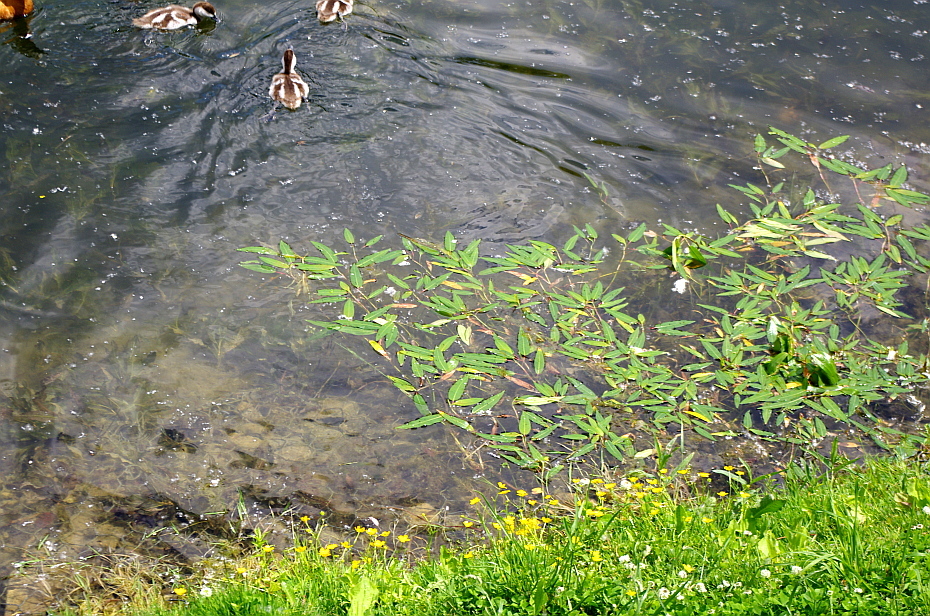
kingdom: Plantae
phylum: Tracheophyta
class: Magnoliopsida
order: Caryophyllales
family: Polygonaceae
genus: Persicaria
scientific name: Persicaria amphibia
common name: Amphibious bistort
